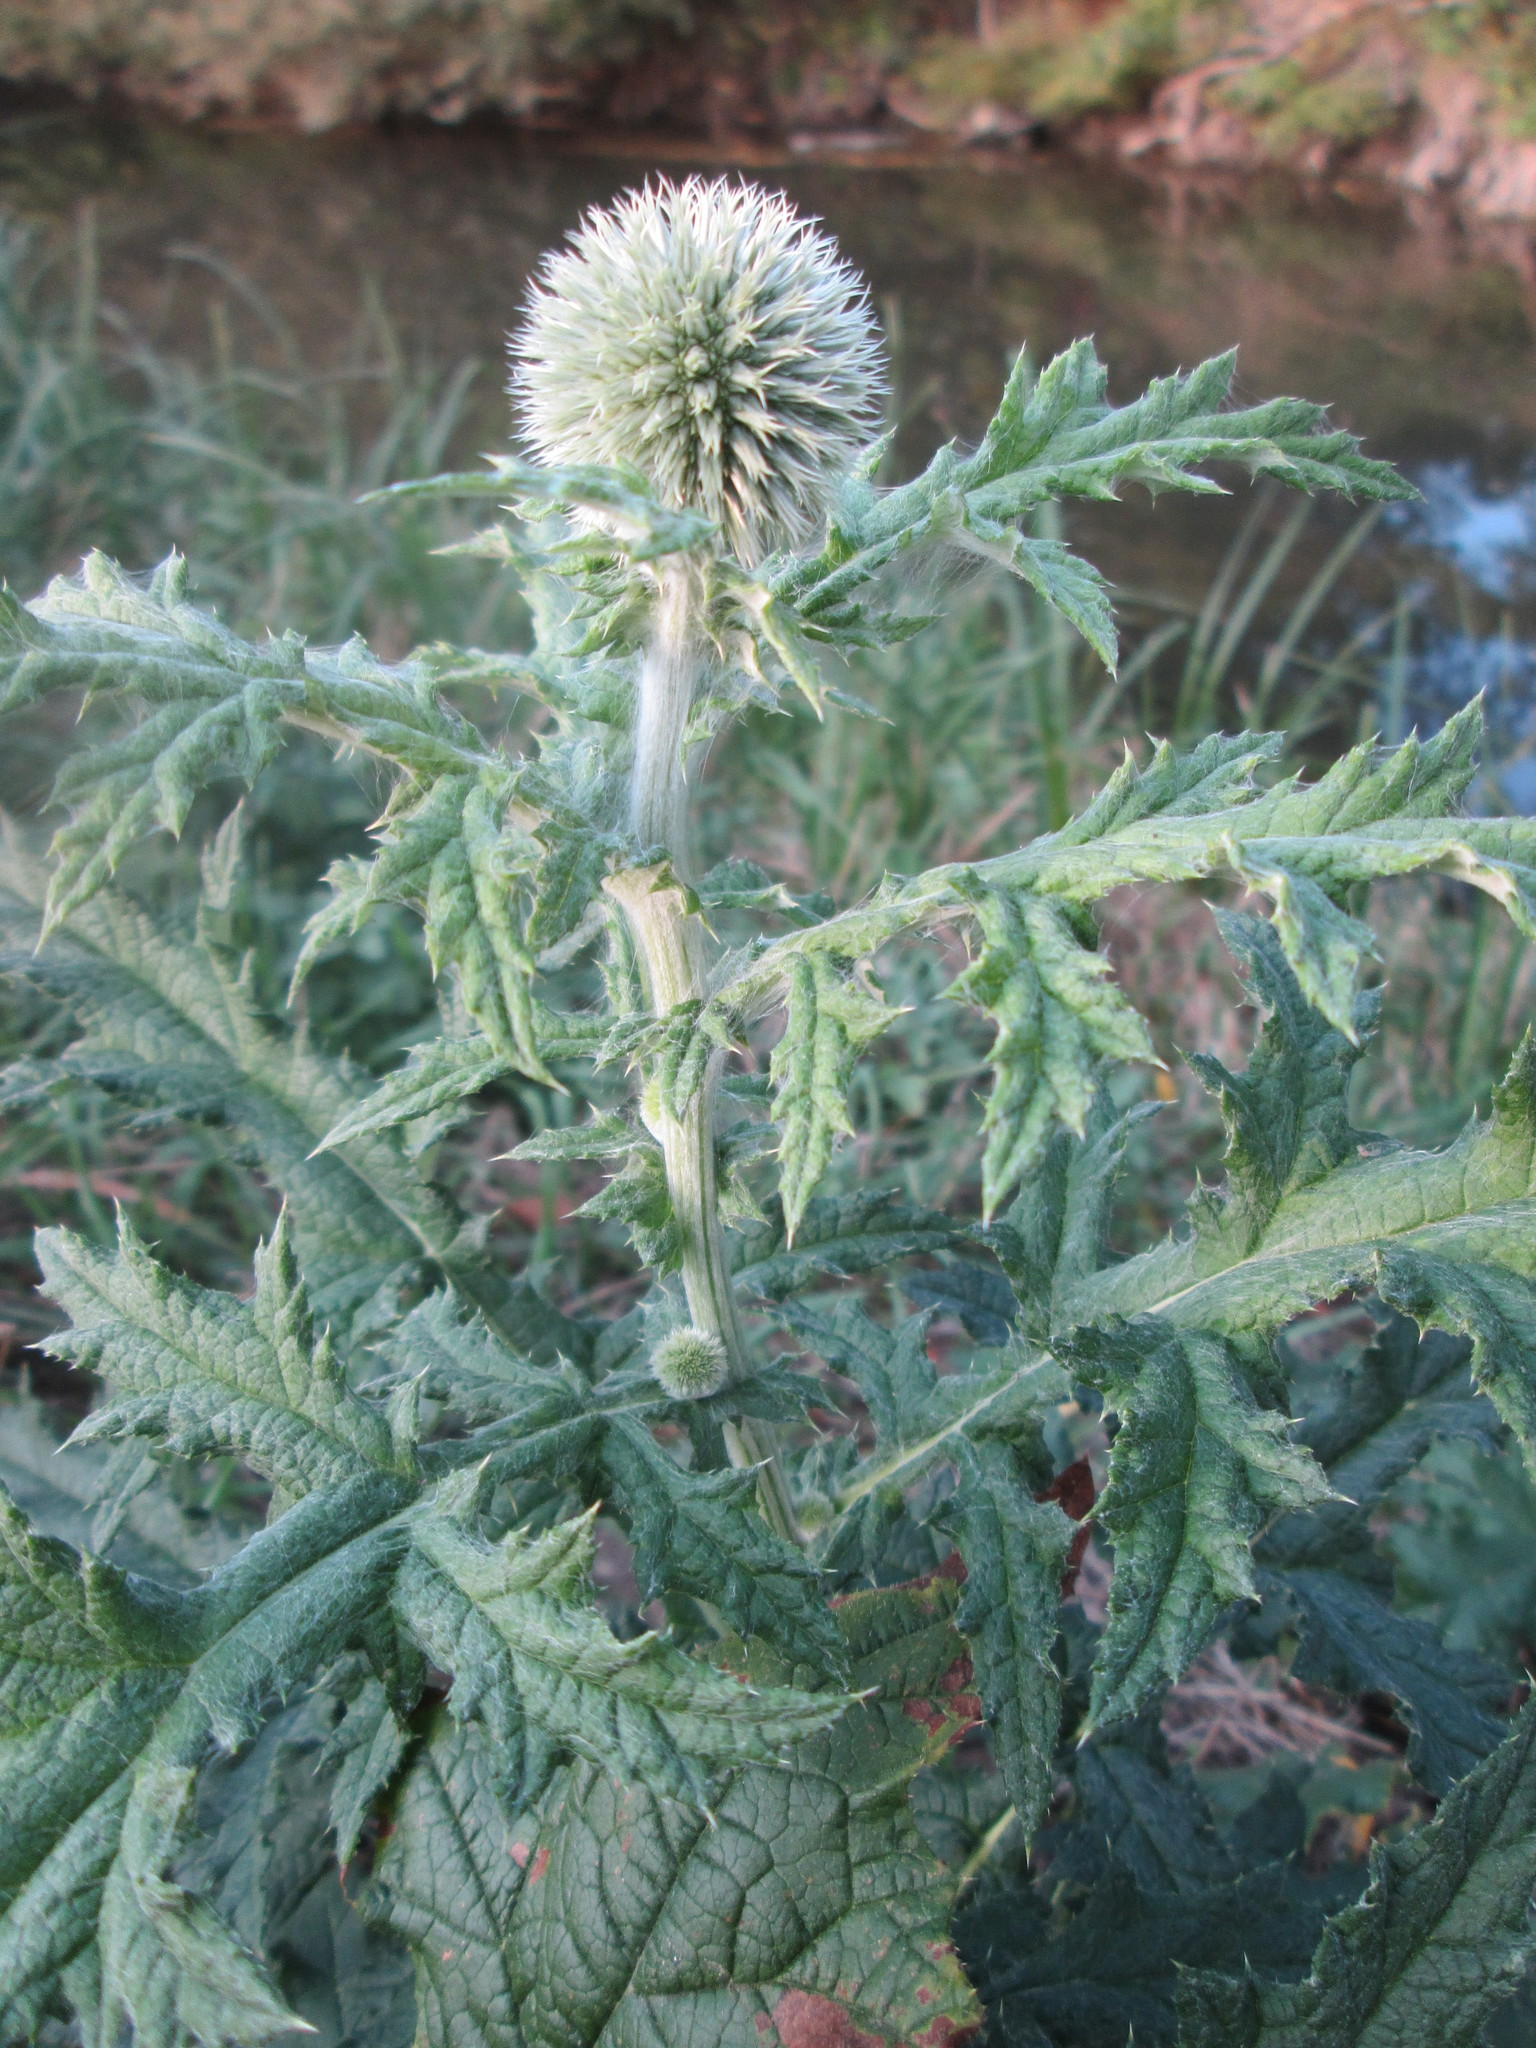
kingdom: Plantae
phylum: Tracheophyta
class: Magnoliopsida
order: Asterales
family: Asteraceae
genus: Echinops
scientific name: Echinops exaltatus
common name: Globe-thistle
